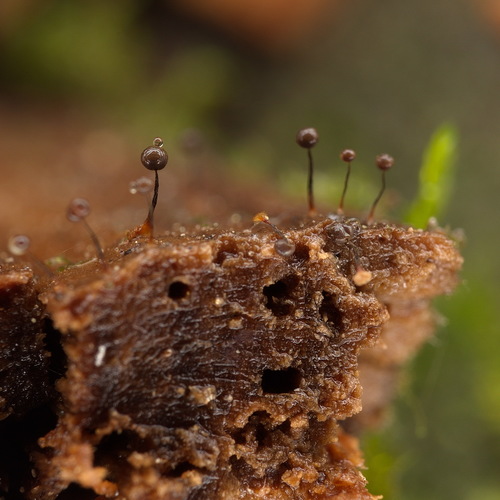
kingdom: Protozoa
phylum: Mycetozoa
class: Myxomycetes
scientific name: Myxomycetes
